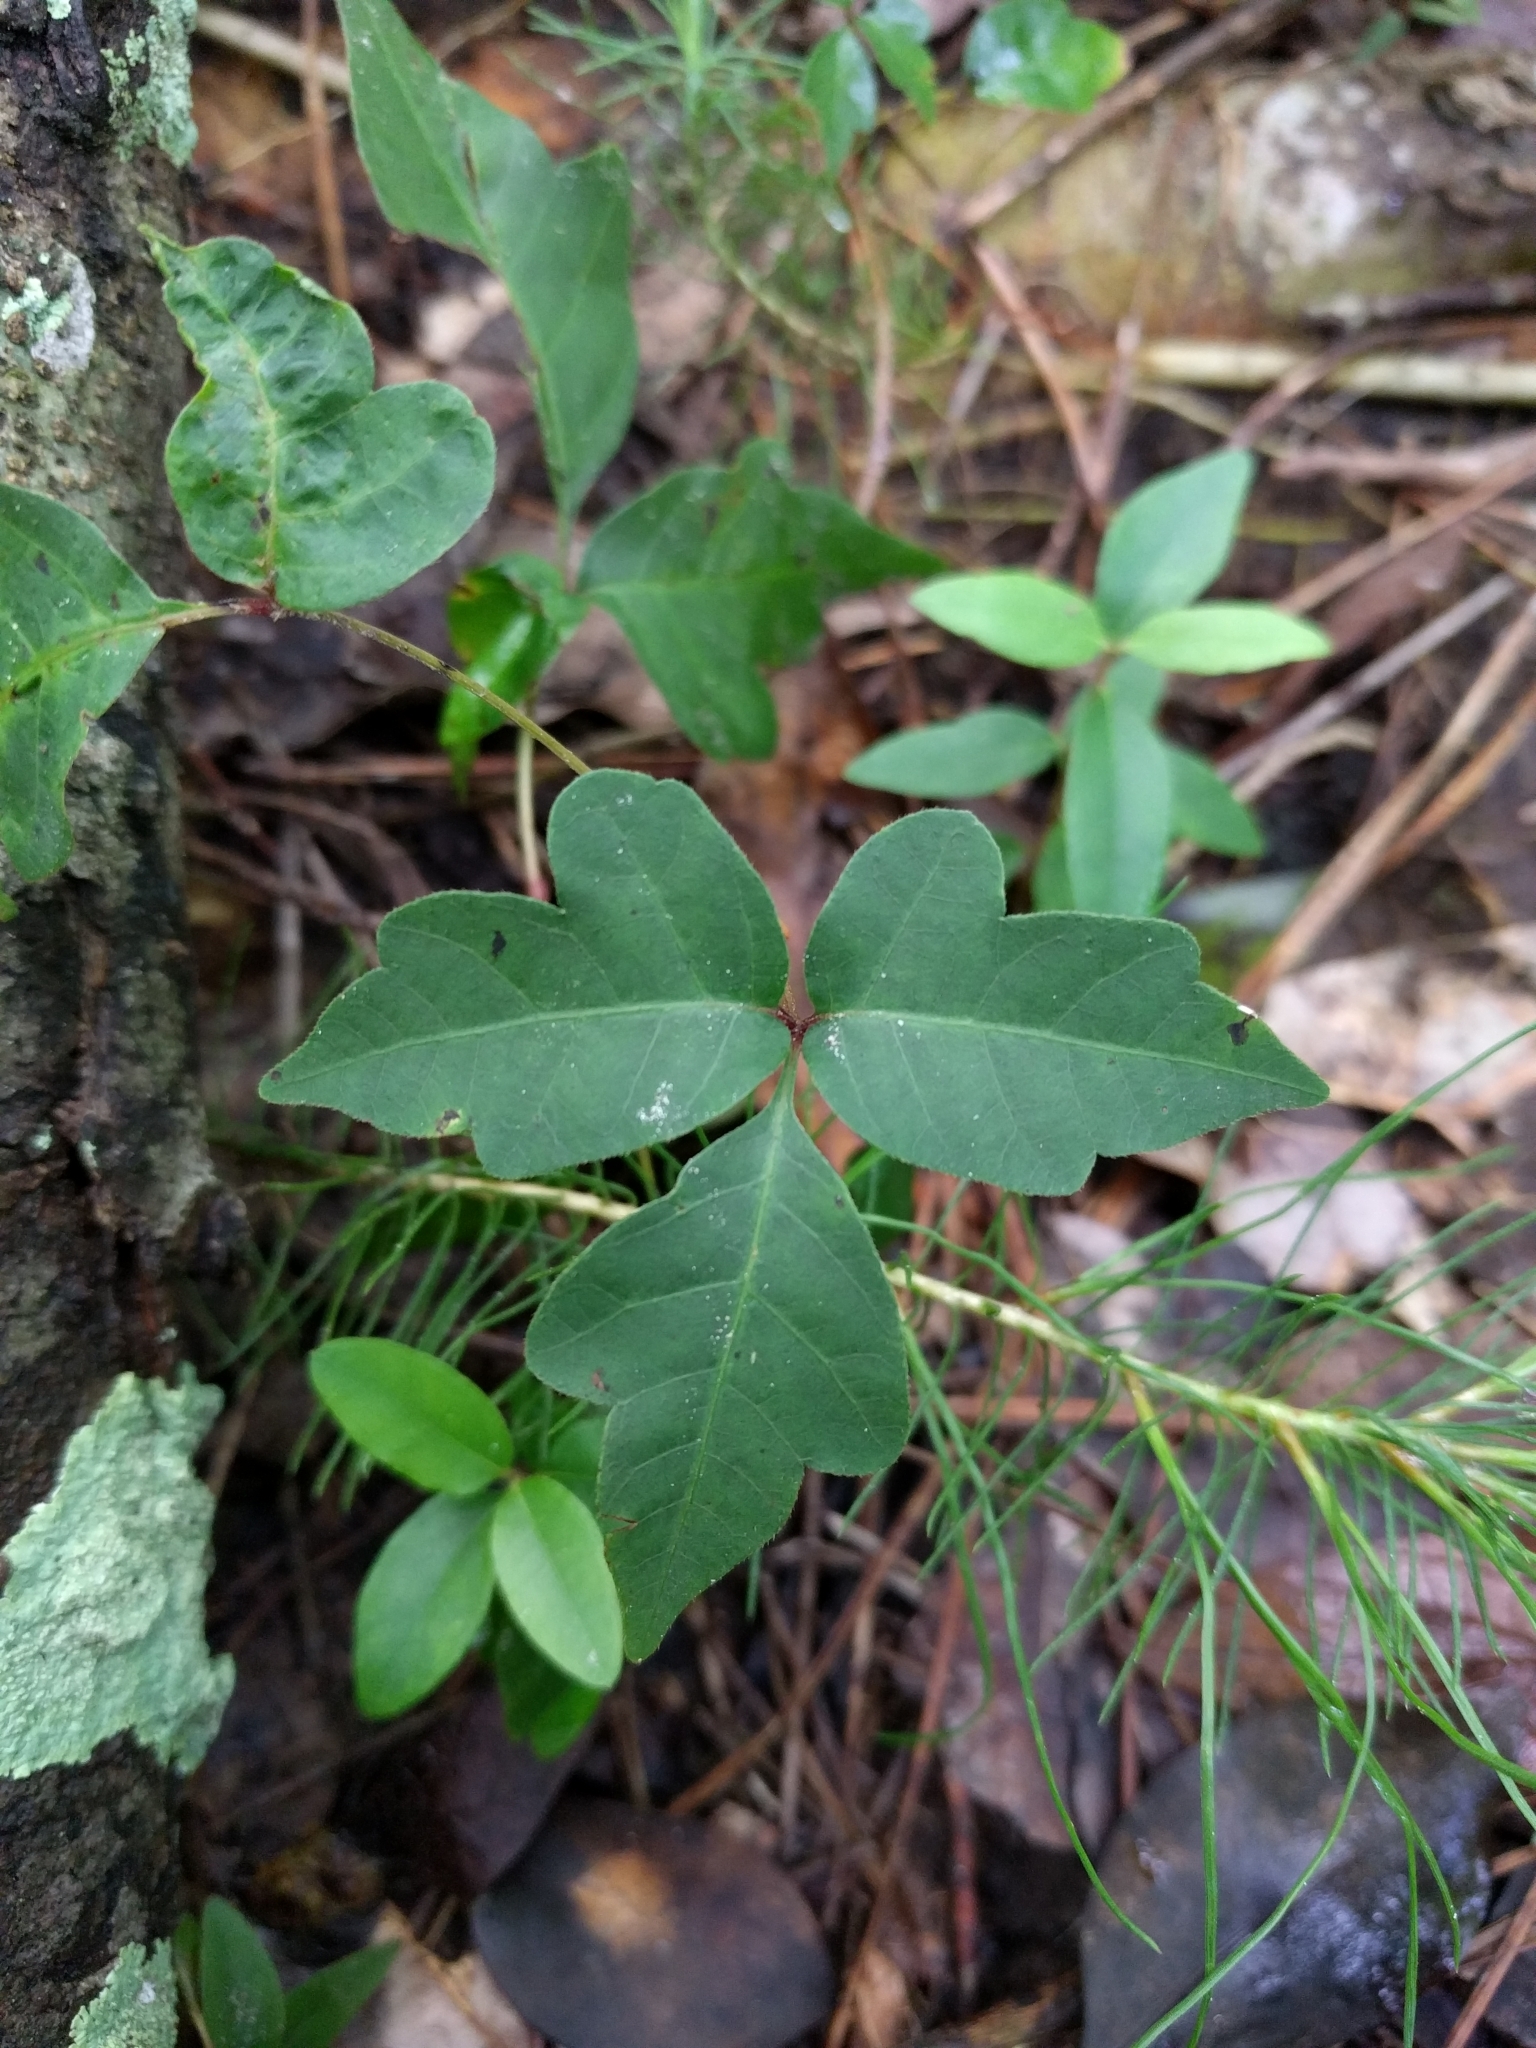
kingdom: Plantae
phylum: Tracheophyta
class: Magnoliopsida
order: Sapindales
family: Anacardiaceae
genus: Toxicodendron
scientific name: Toxicodendron radicans
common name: Poison ivy
